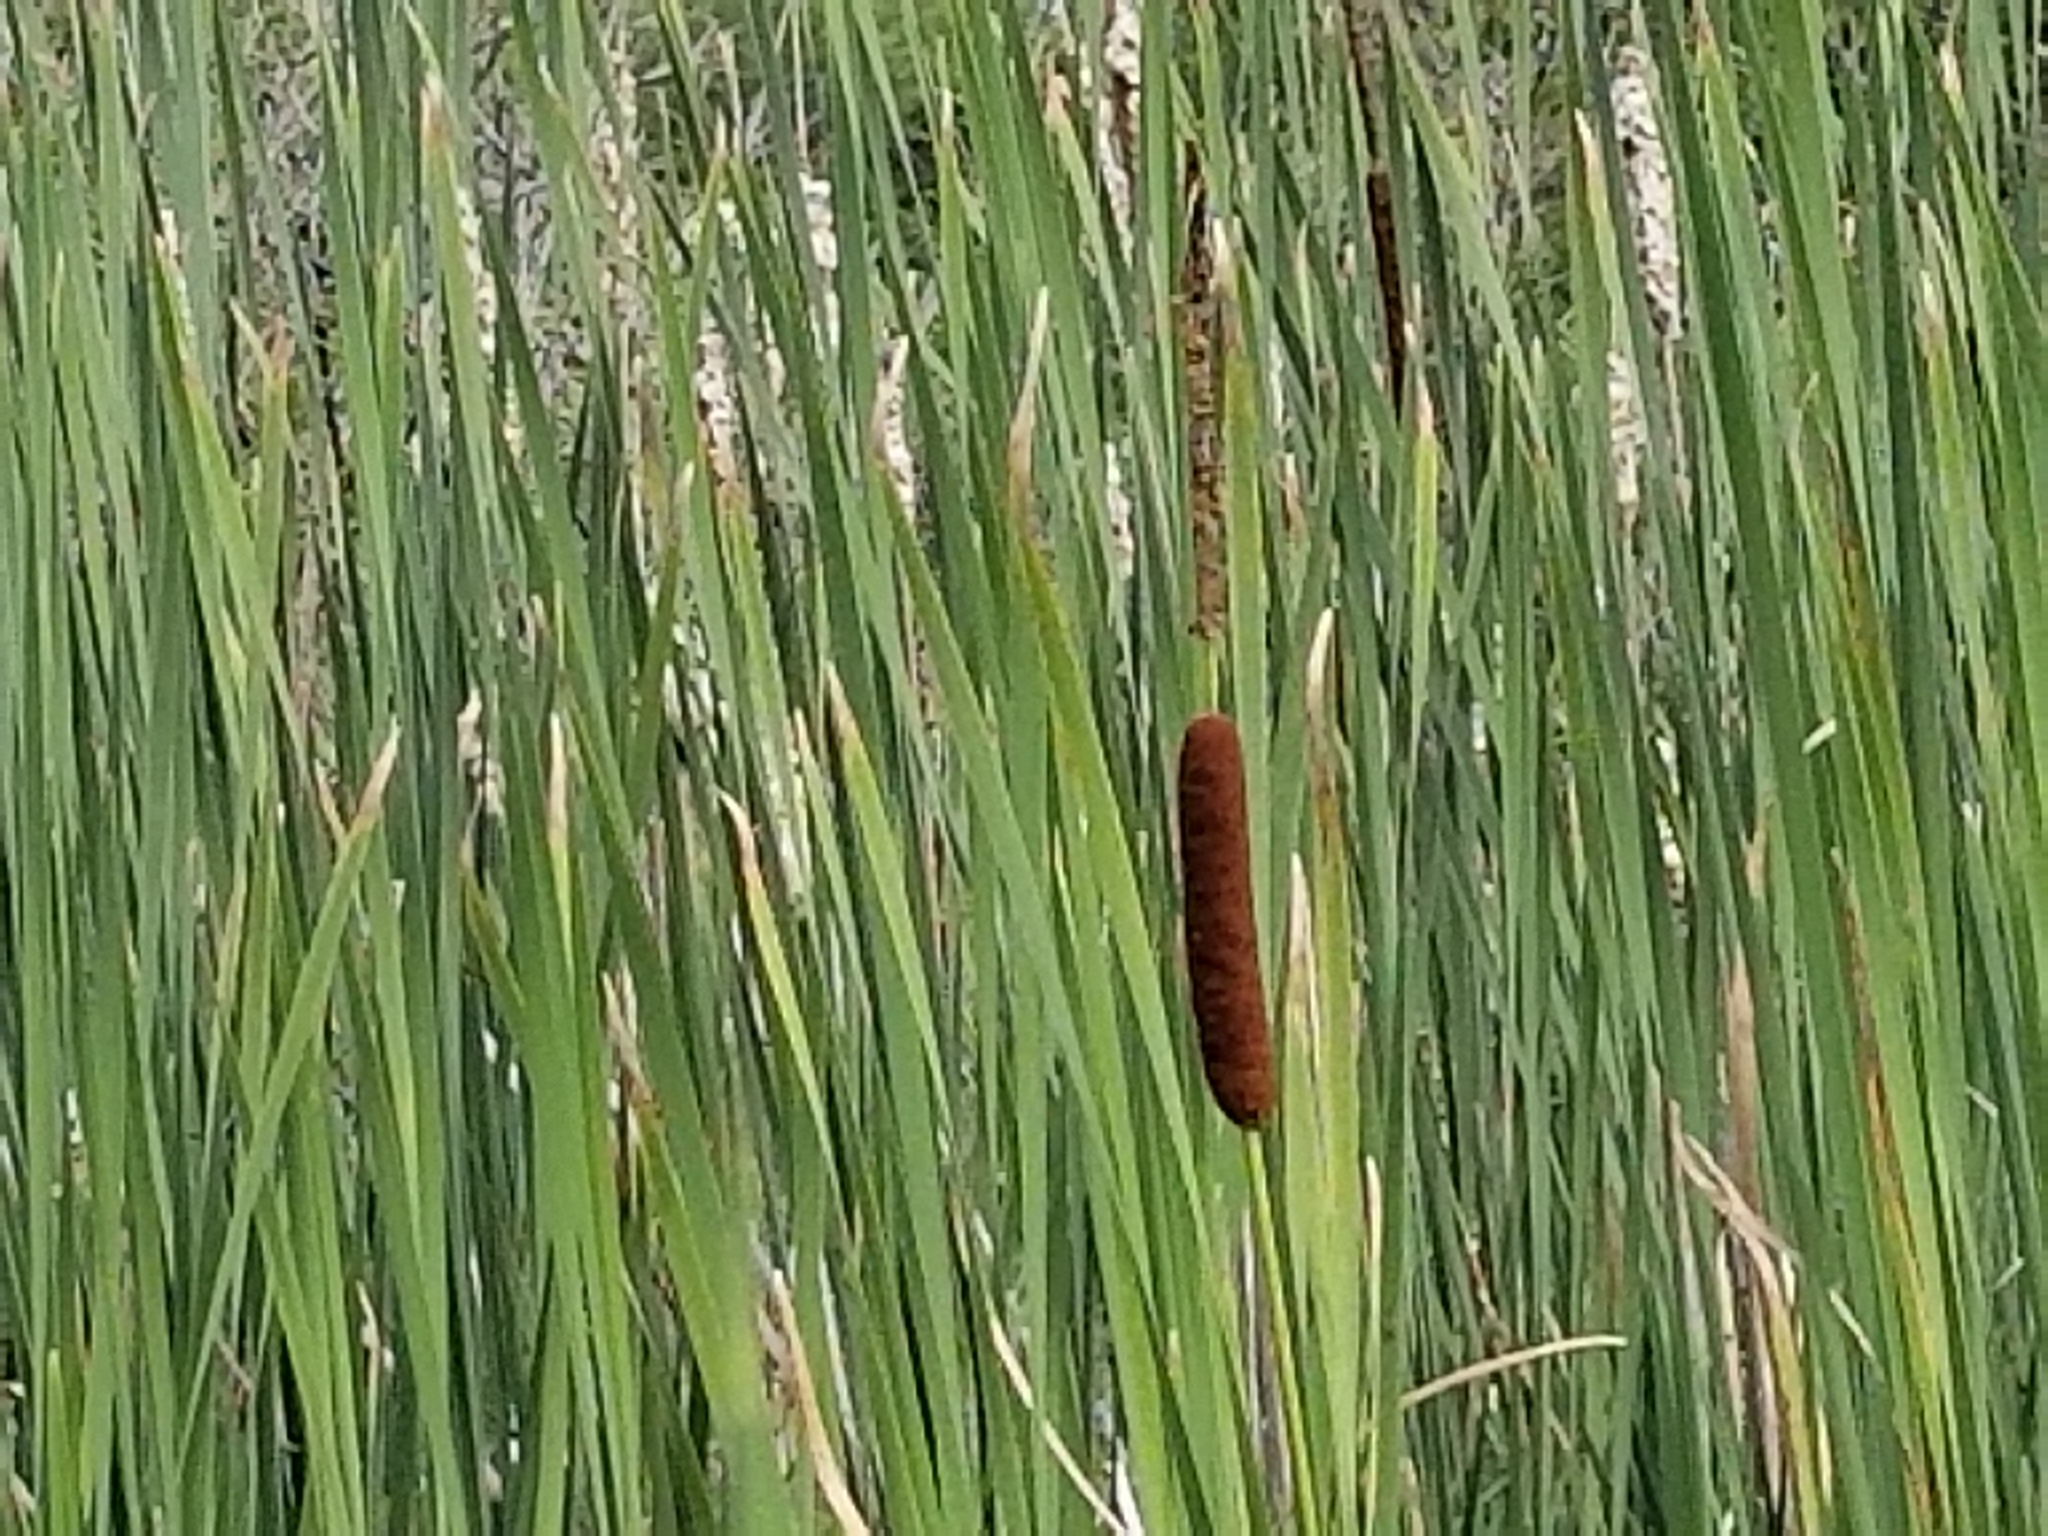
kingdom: Plantae
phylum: Tracheophyta
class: Liliopsida
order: Poales
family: Typhaceae
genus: Typha
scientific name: Typha angustifolia
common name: Lesser bulrush
